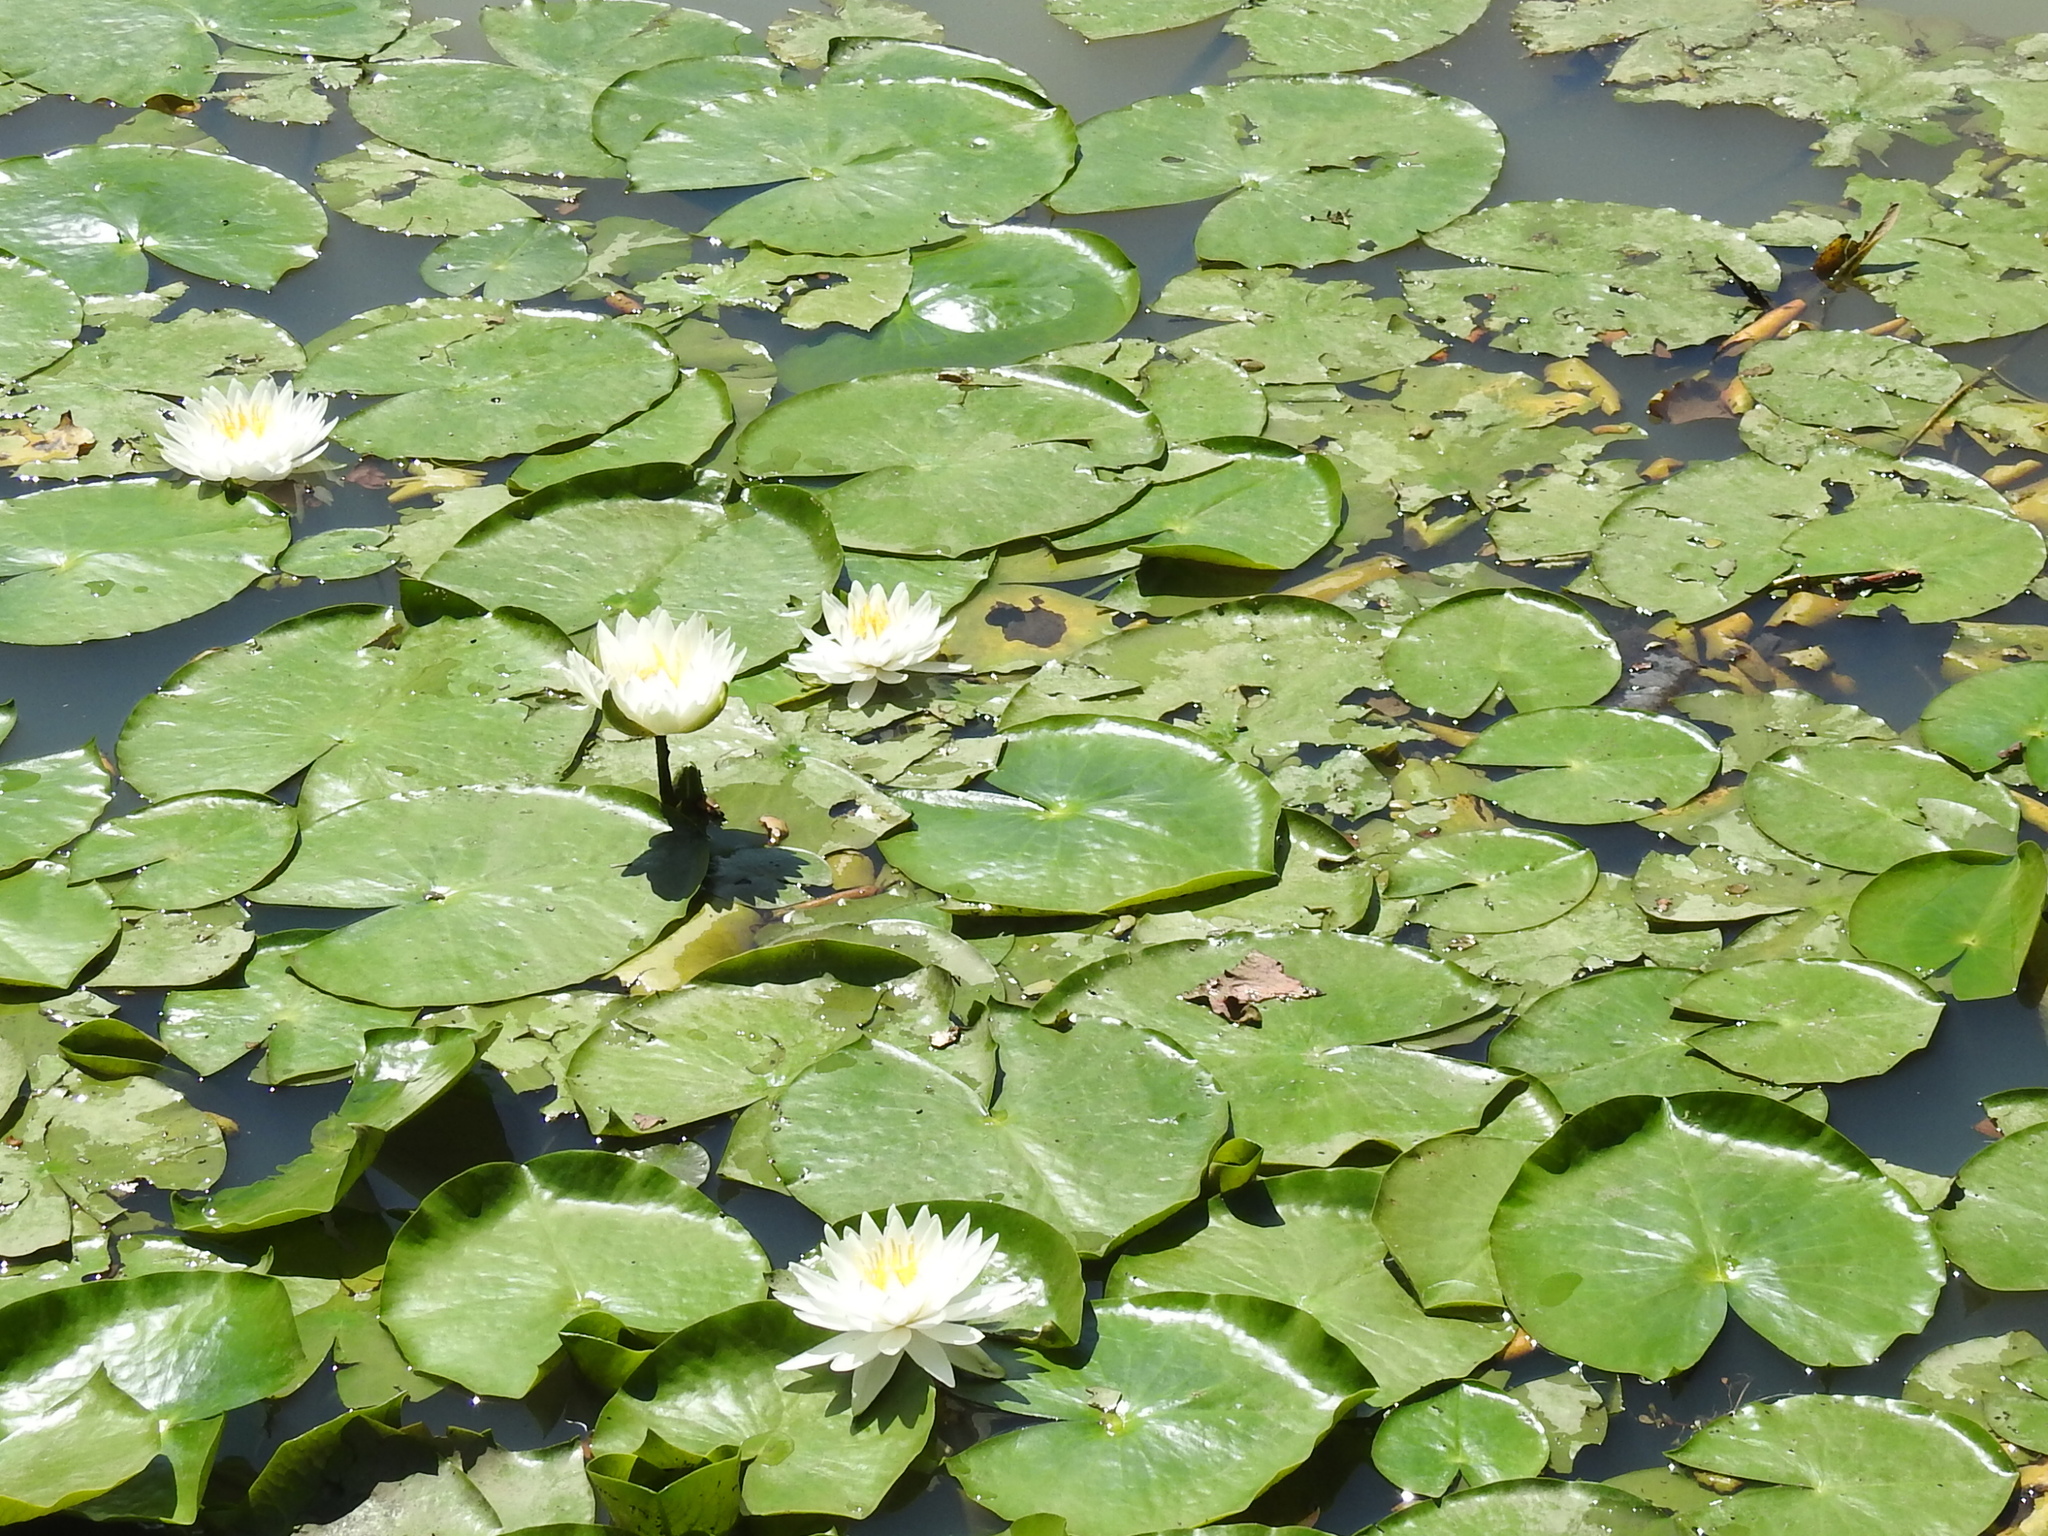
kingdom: Plantae
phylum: Tracheophyta
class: Magnoliopsida
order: Nymphaeales
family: Nymphaeaceae
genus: Nymphaea
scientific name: Nymphaea odorata
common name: Fragrant water-lily
